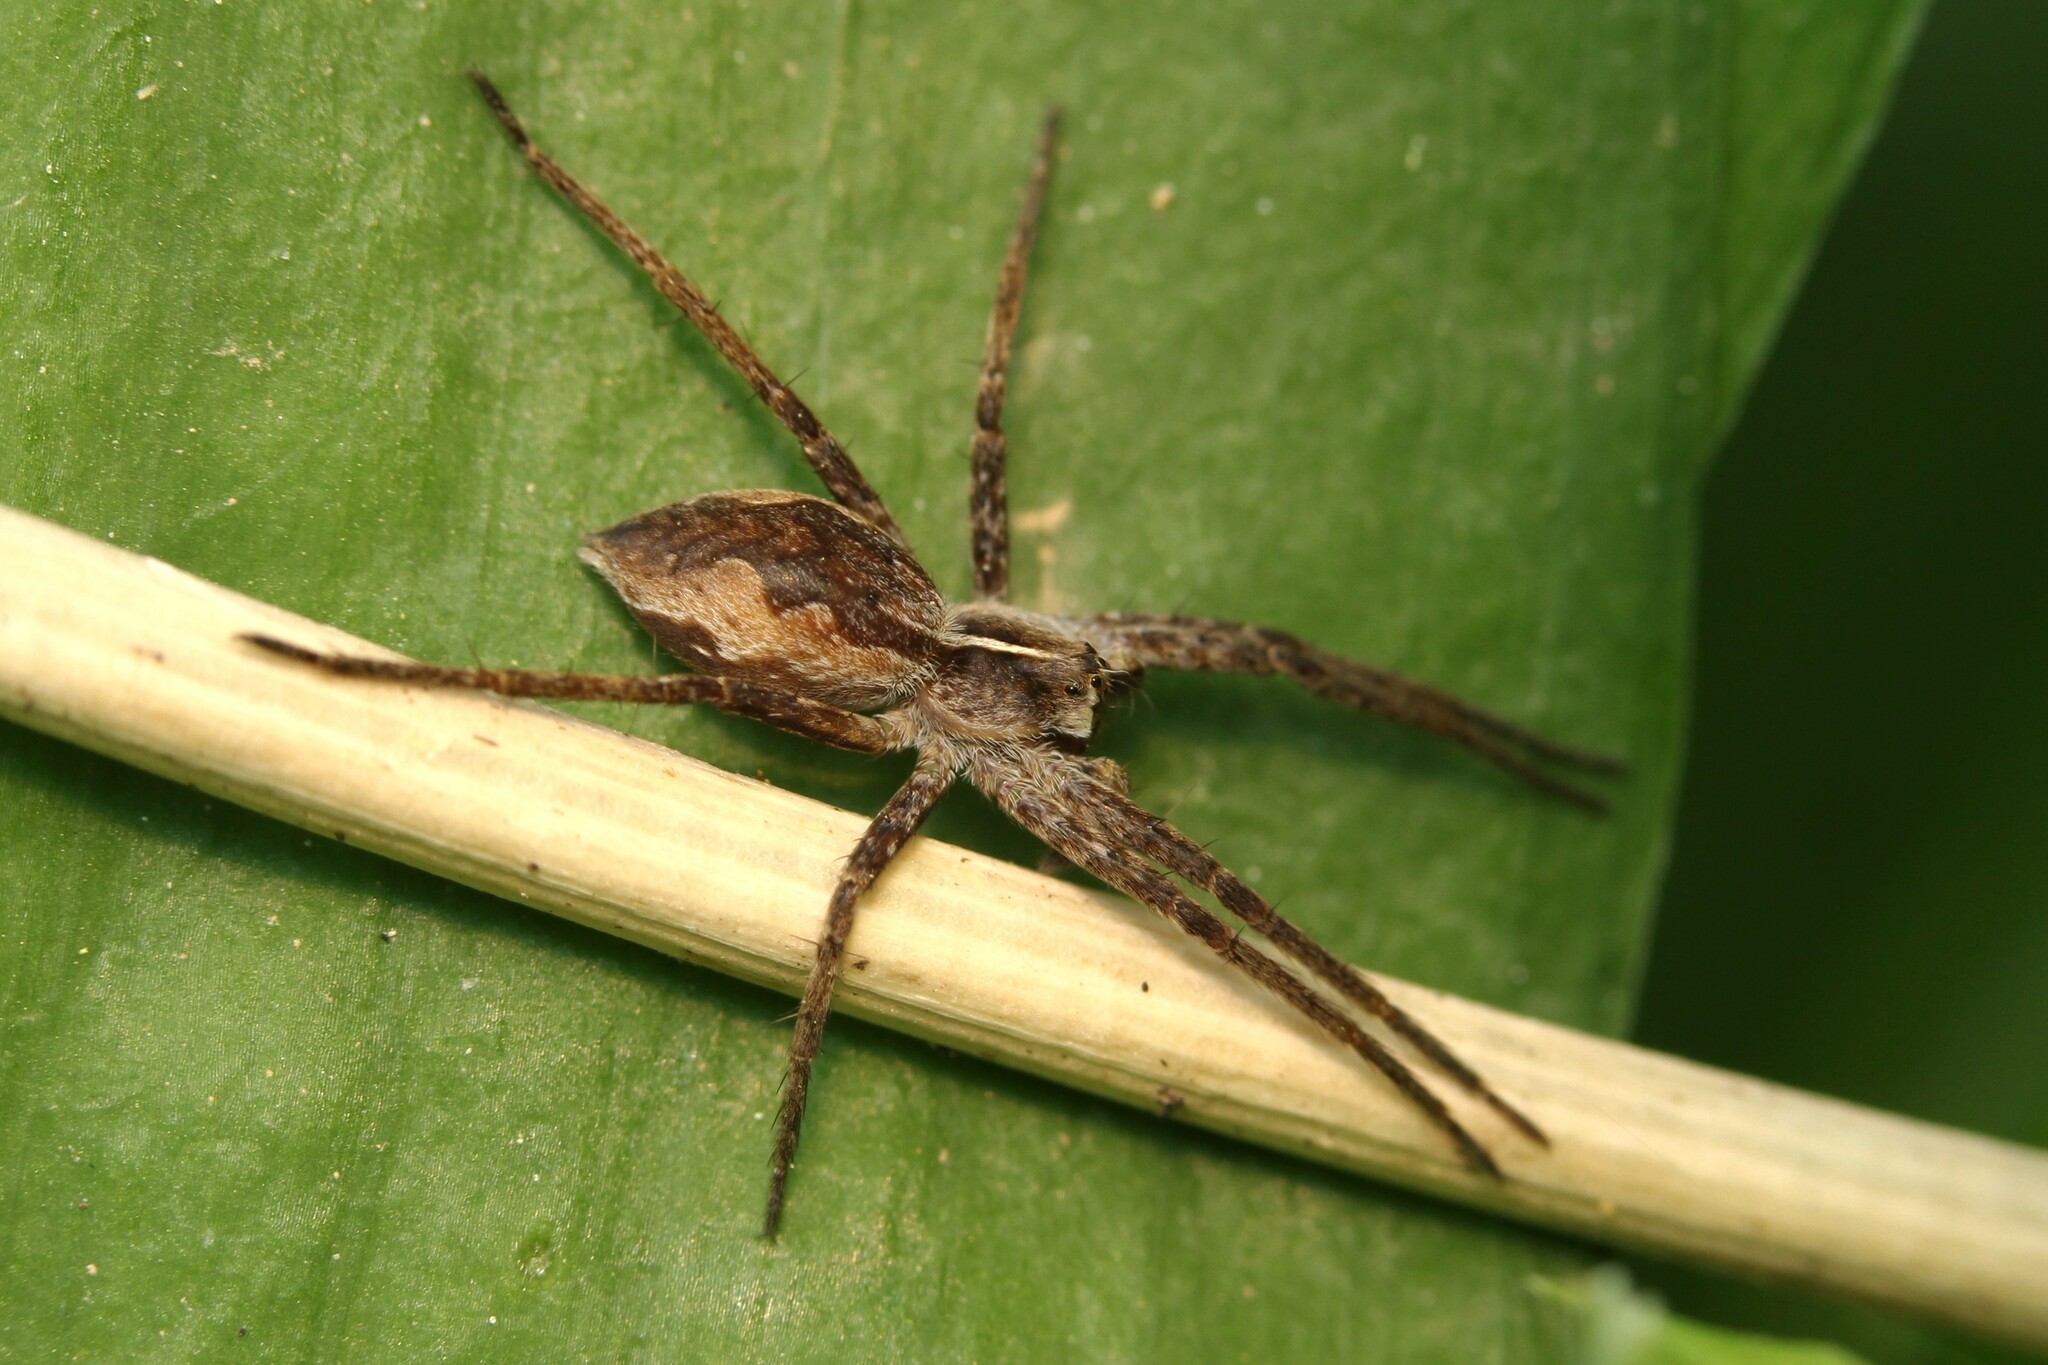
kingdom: Animalia
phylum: Arthropoda
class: Arachnida
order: Araneae
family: Pisauridae
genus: Pisaura
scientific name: Pisaura mirabilis
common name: Tent spider
